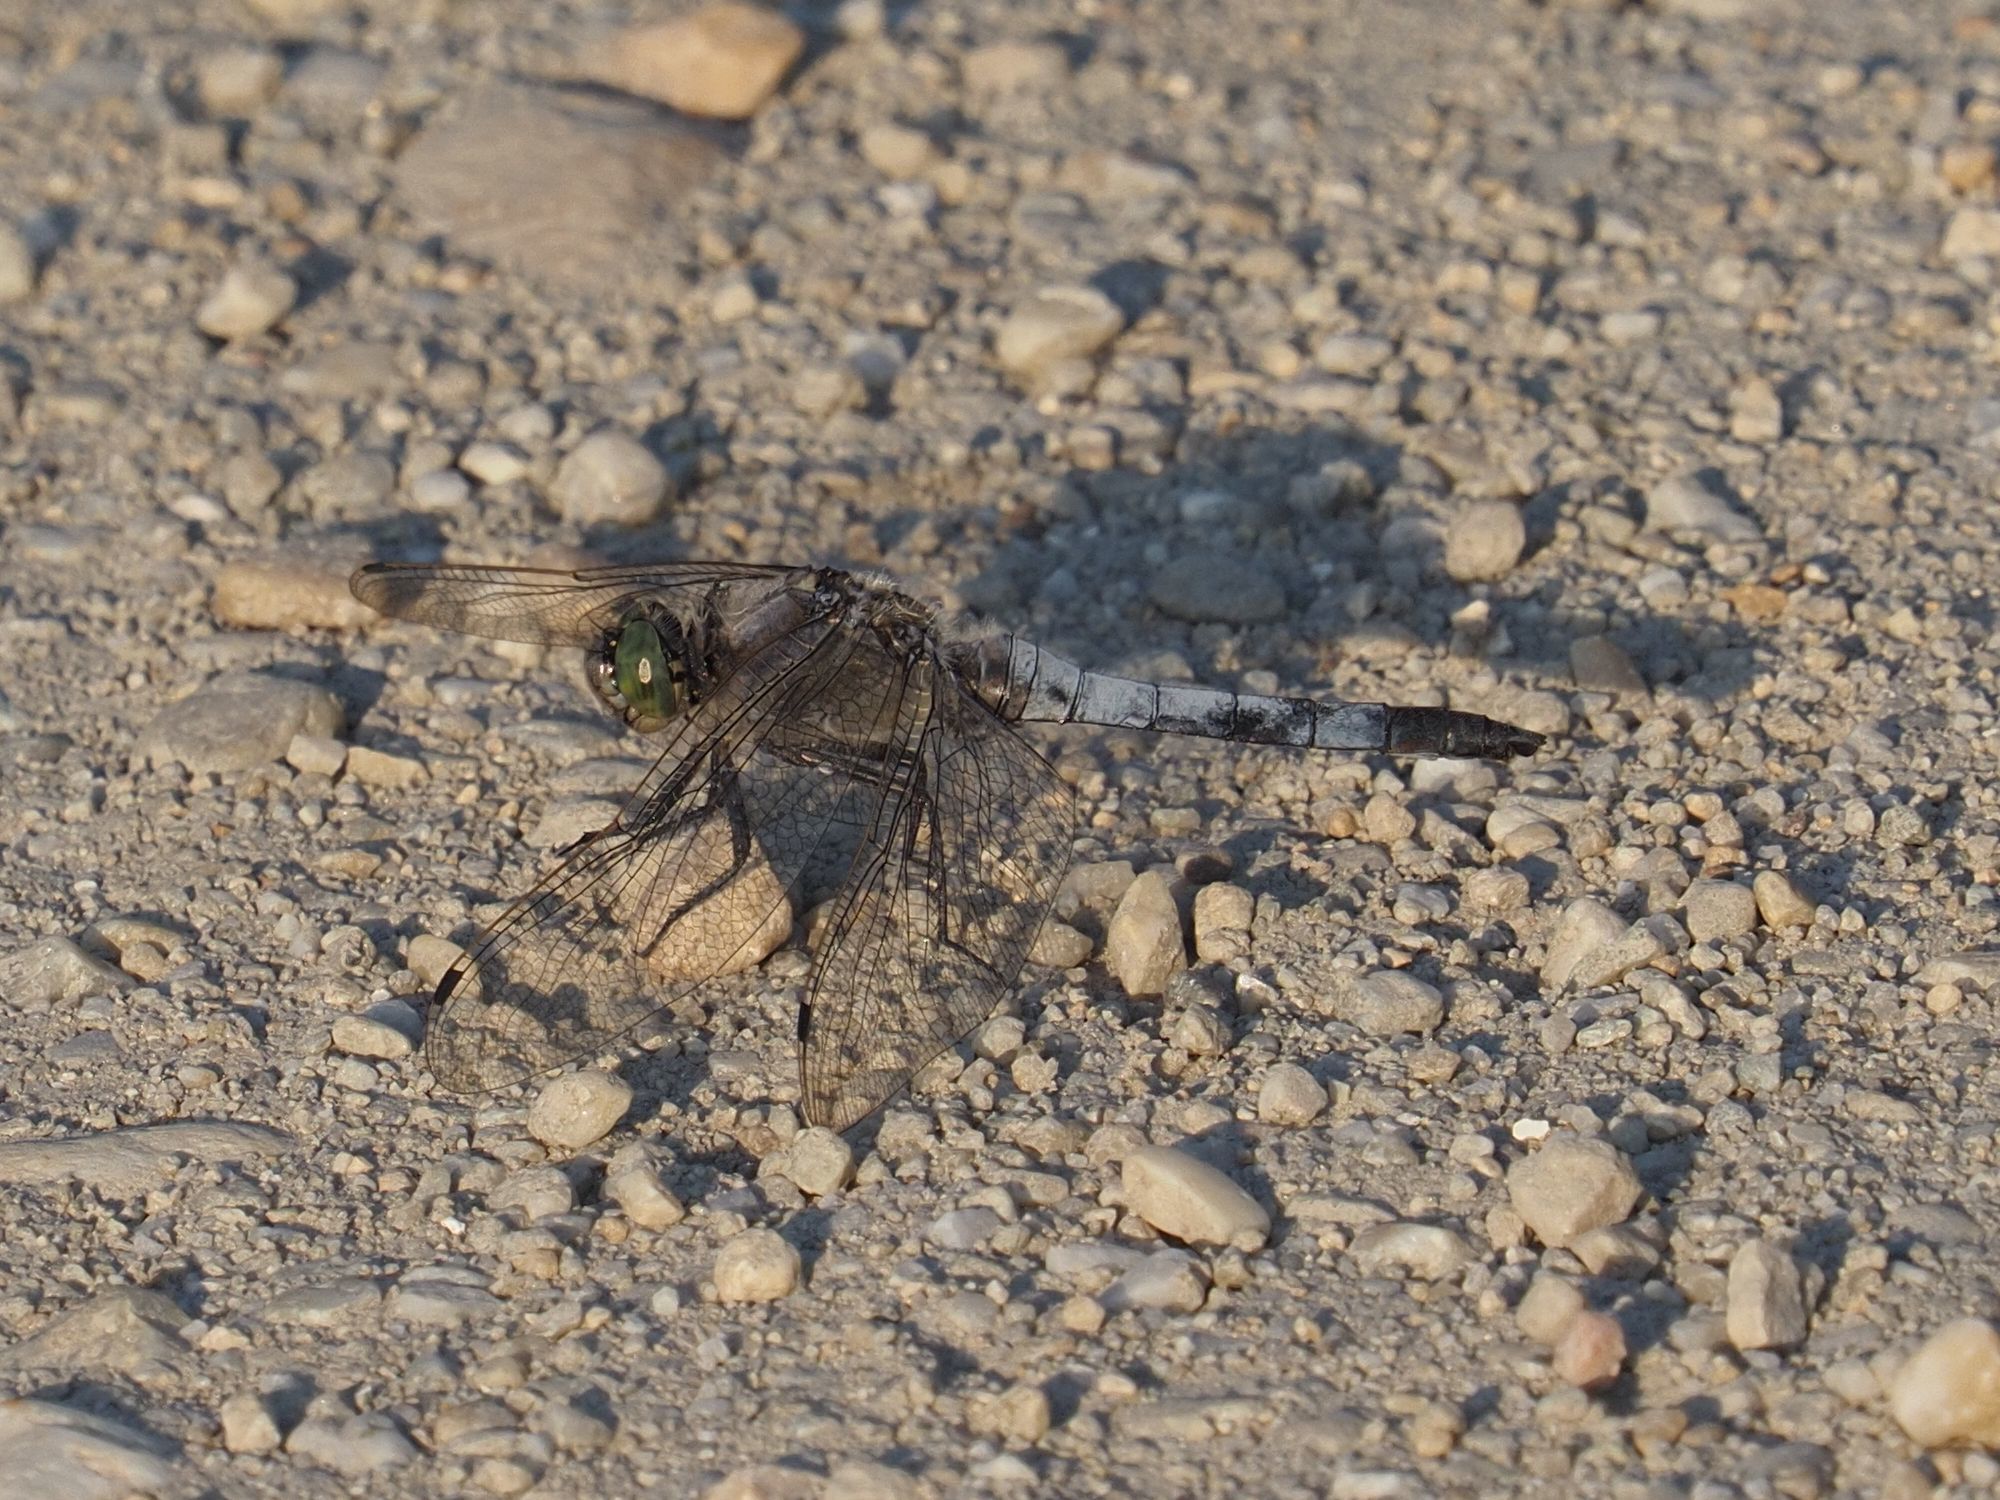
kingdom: Animalia
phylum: Arthropoda
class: Insecta
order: Odonata
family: Libellulidae
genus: Orthetrum
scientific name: Orthetrum cancellatum
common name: Black-tailed skimmer
